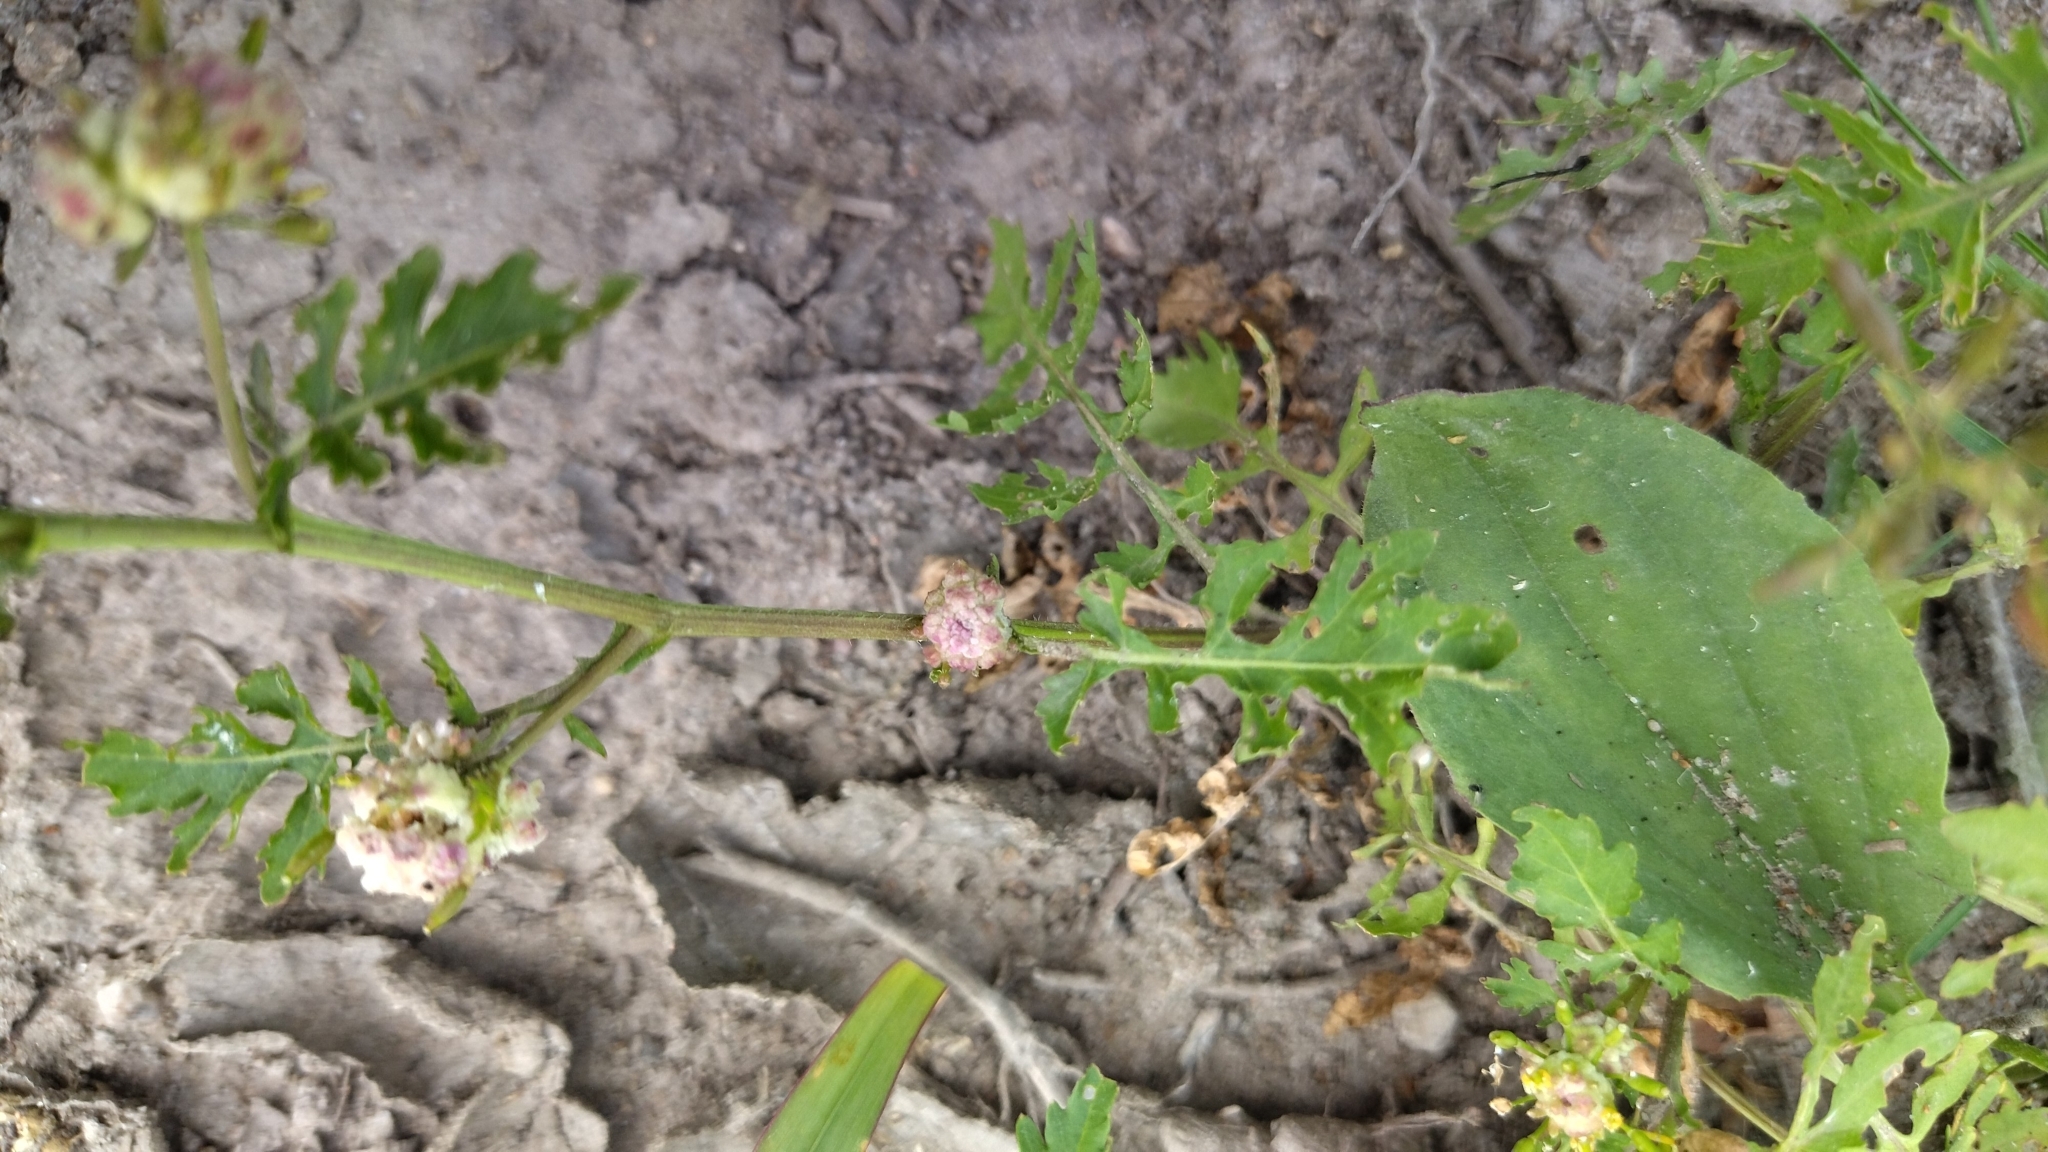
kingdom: Plantae
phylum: Tracheophyta
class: Magnoliopsida
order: Brassicales
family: Brassicaceae
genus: Rorippa
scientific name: Rorippa palustris
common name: Marsh yellow-cress
